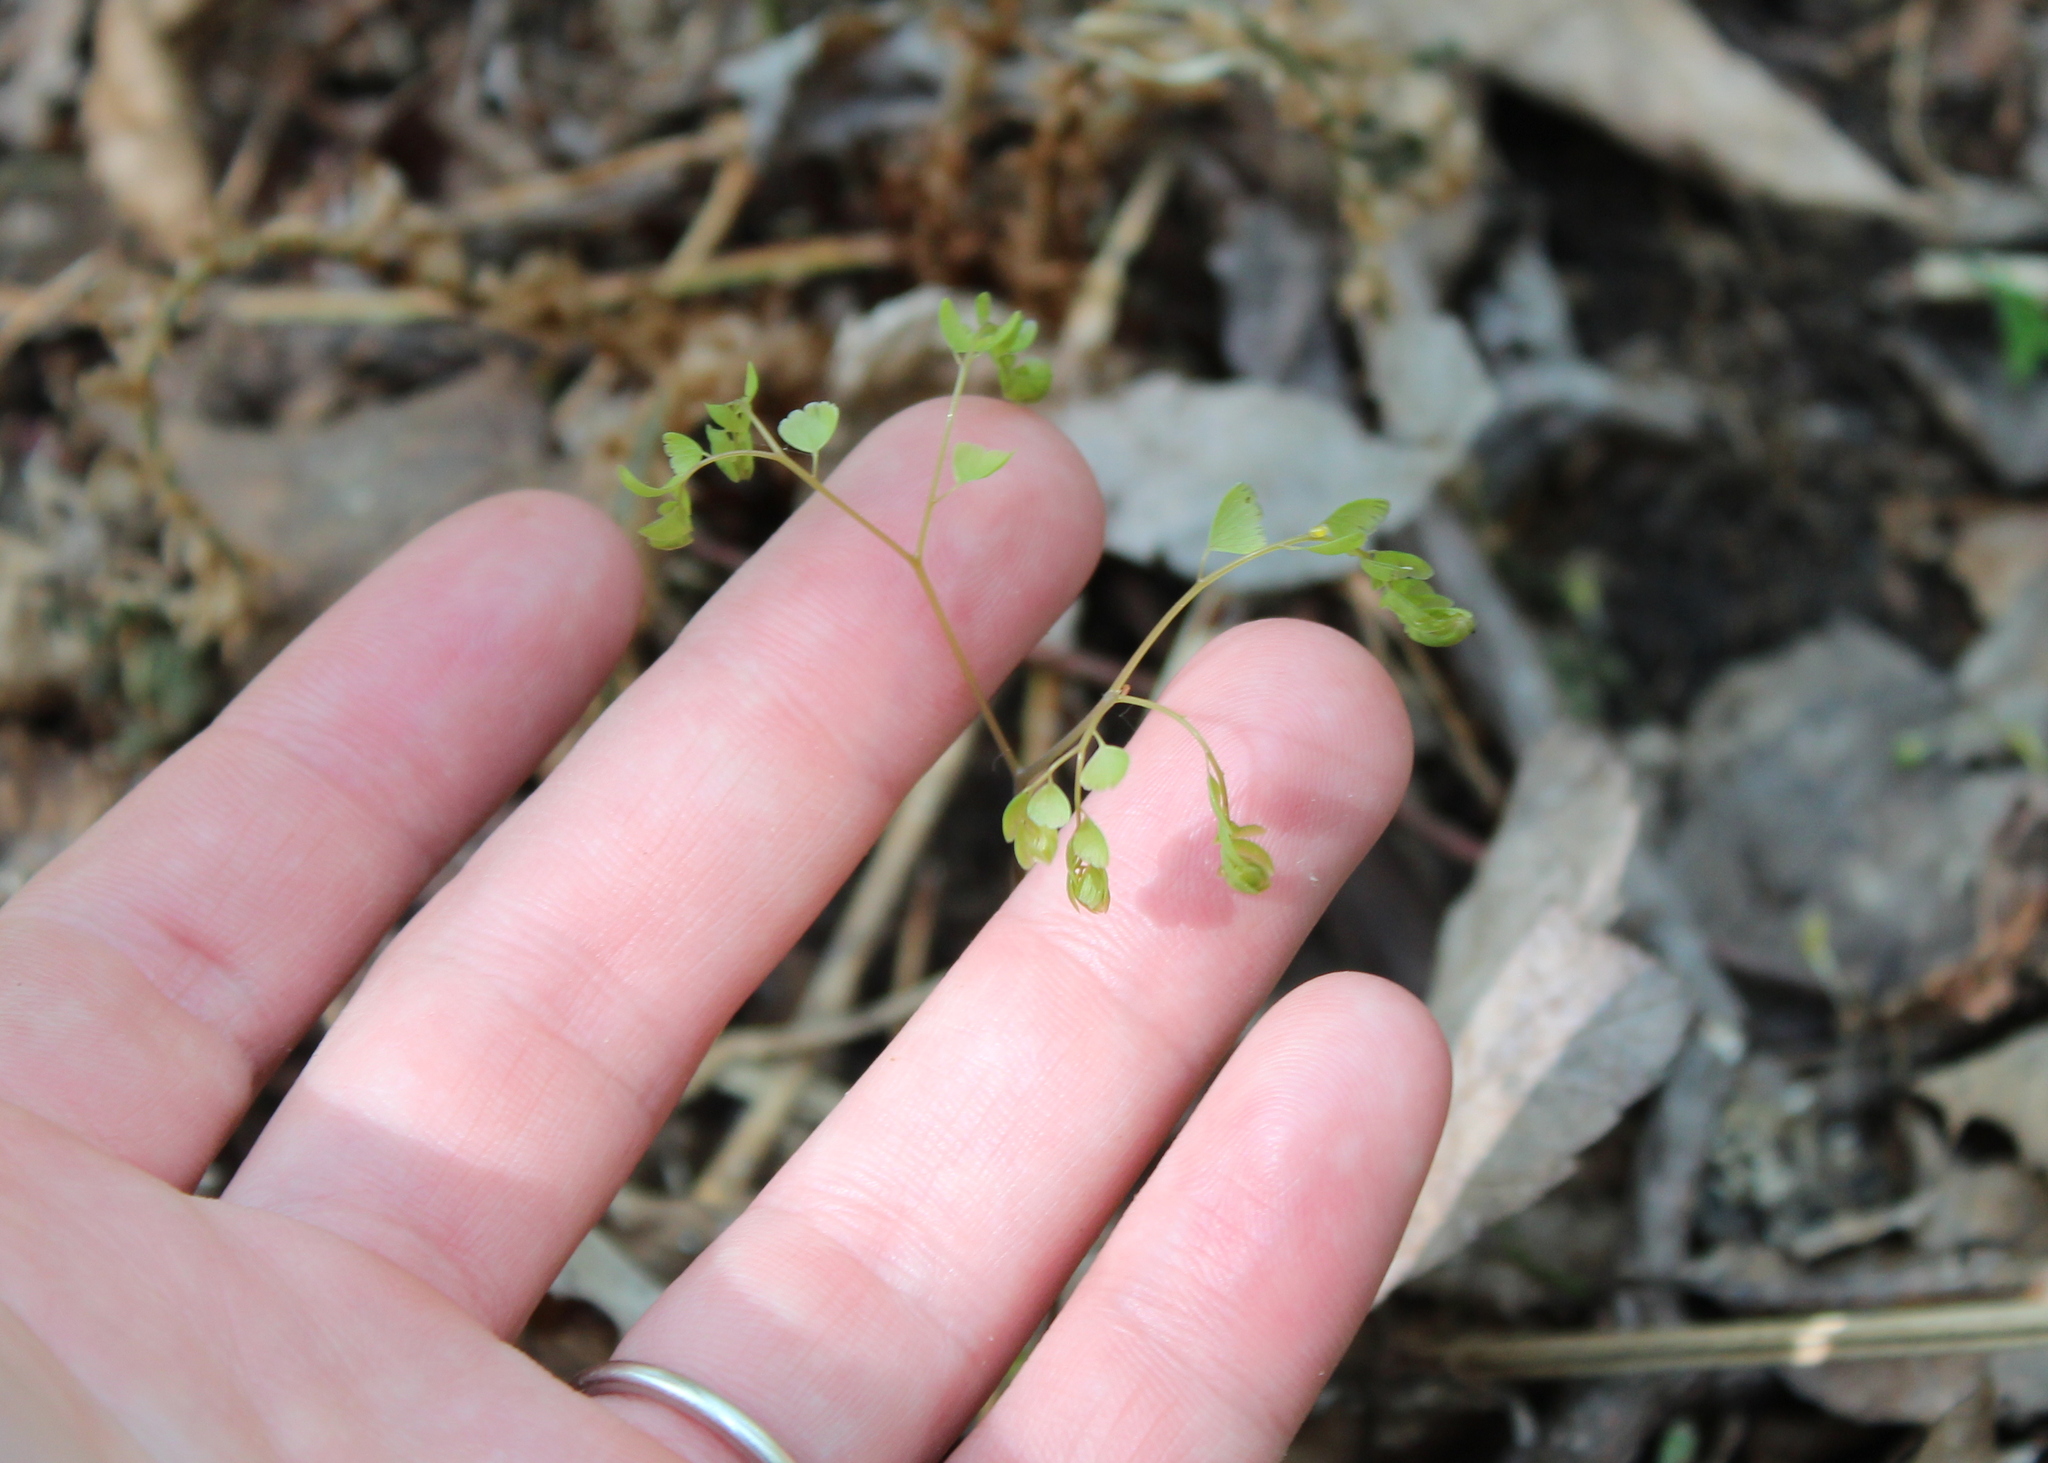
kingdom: Plantae
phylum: Tracheophyta
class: Polypodiopsida
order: Polypodiales
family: Pteridaceae
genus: Adiantum
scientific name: Adiantum pedatum
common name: Five-finger fern
